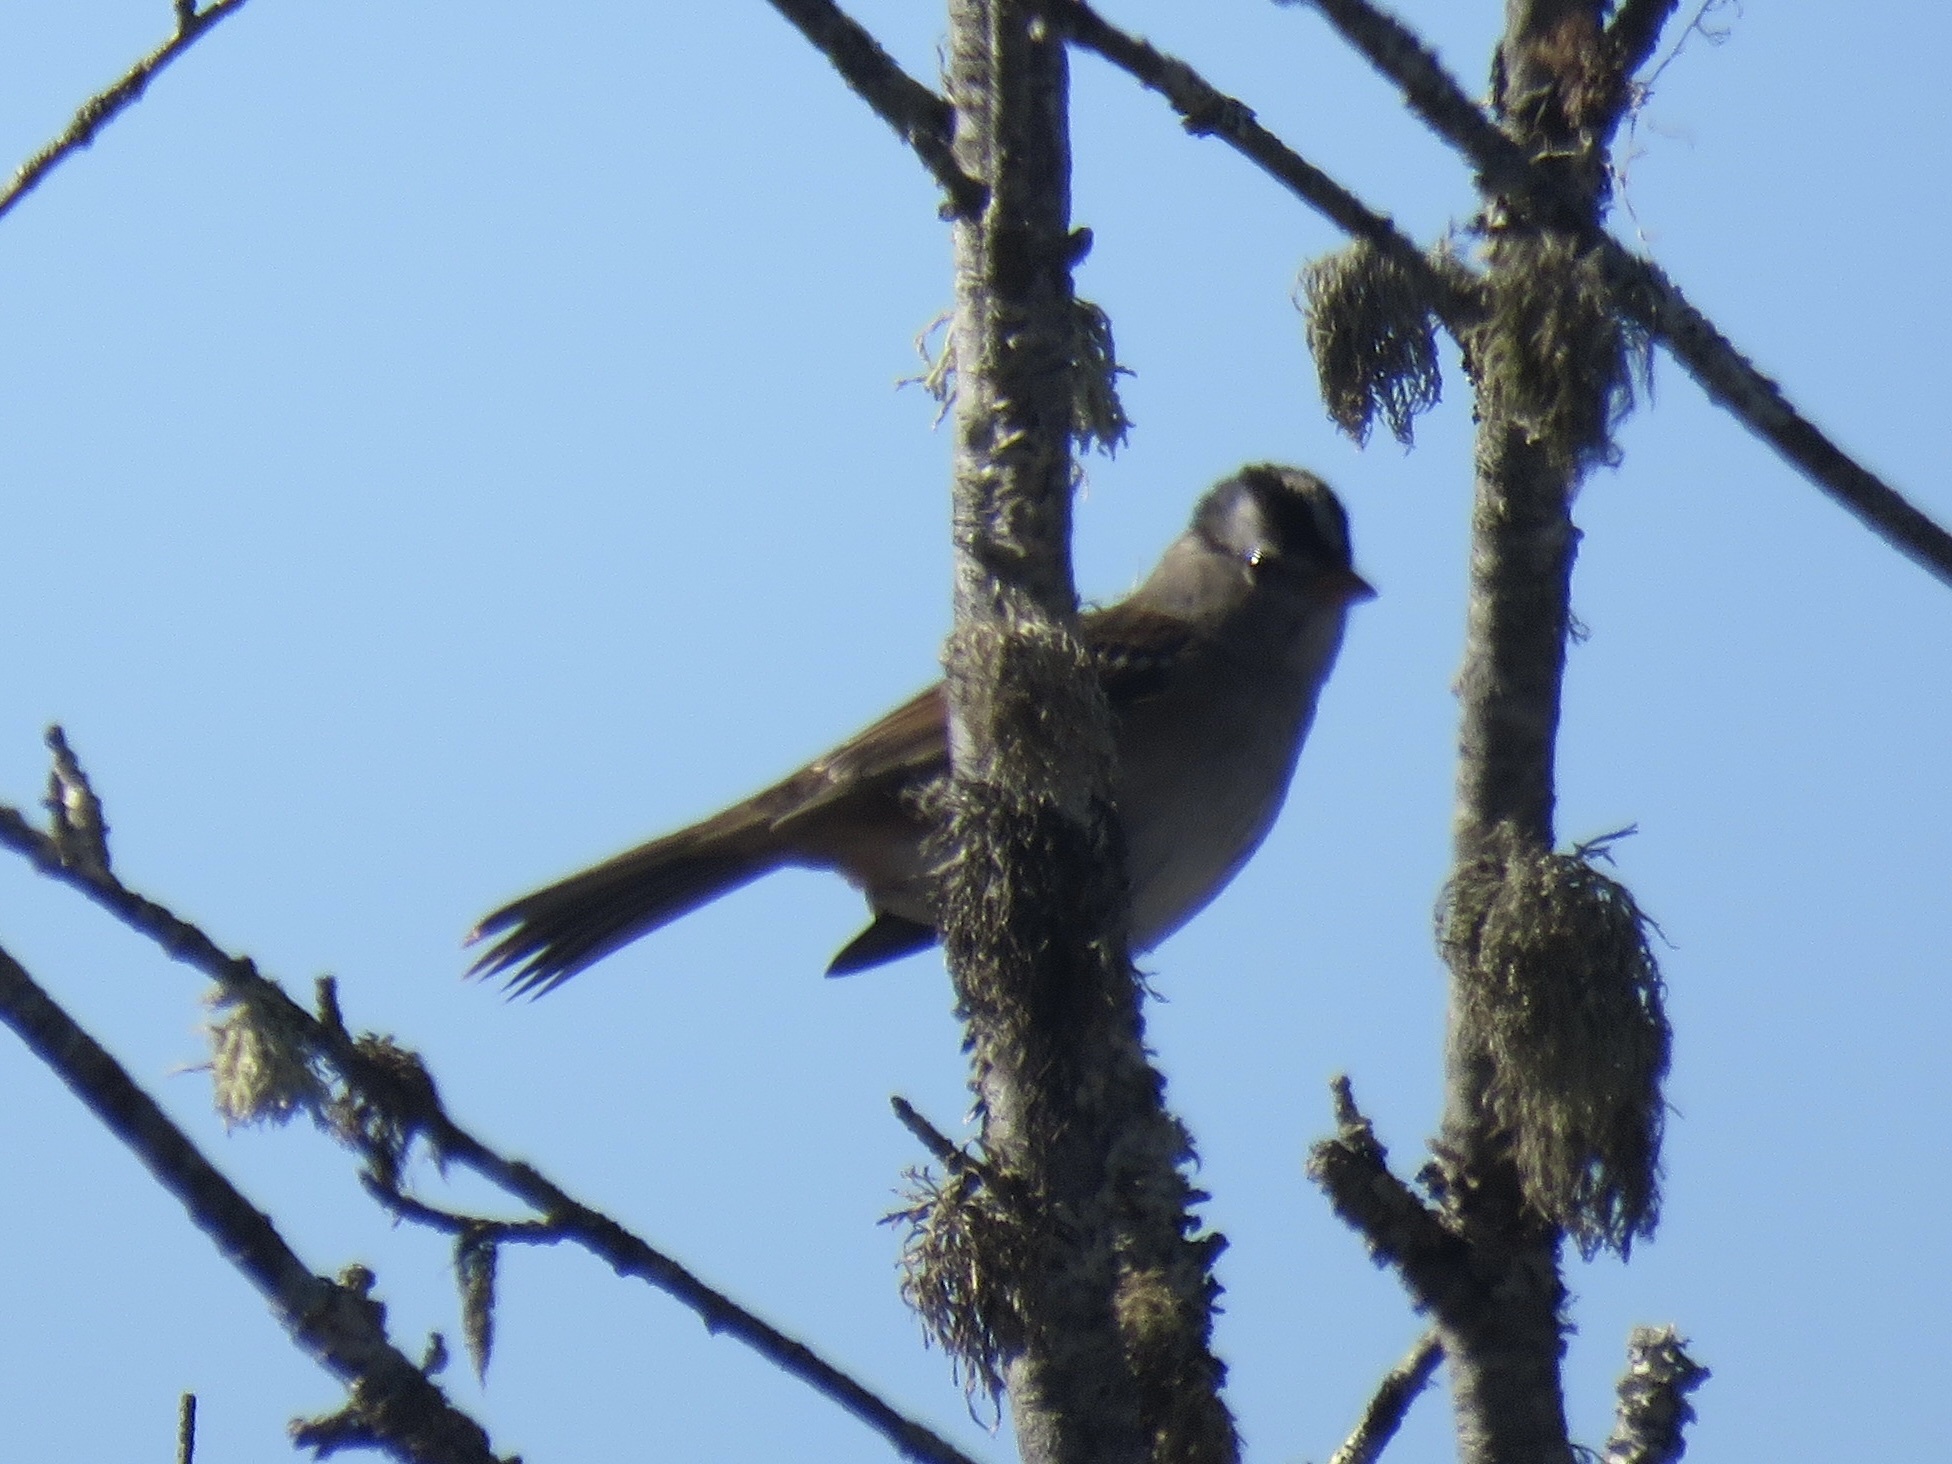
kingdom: Animalia
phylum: Chordata
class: Aves
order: Passeriformes
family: Passerellidae
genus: Zonotrichia
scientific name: Zonotrichia leucophrys
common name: White-crowned sparrow
